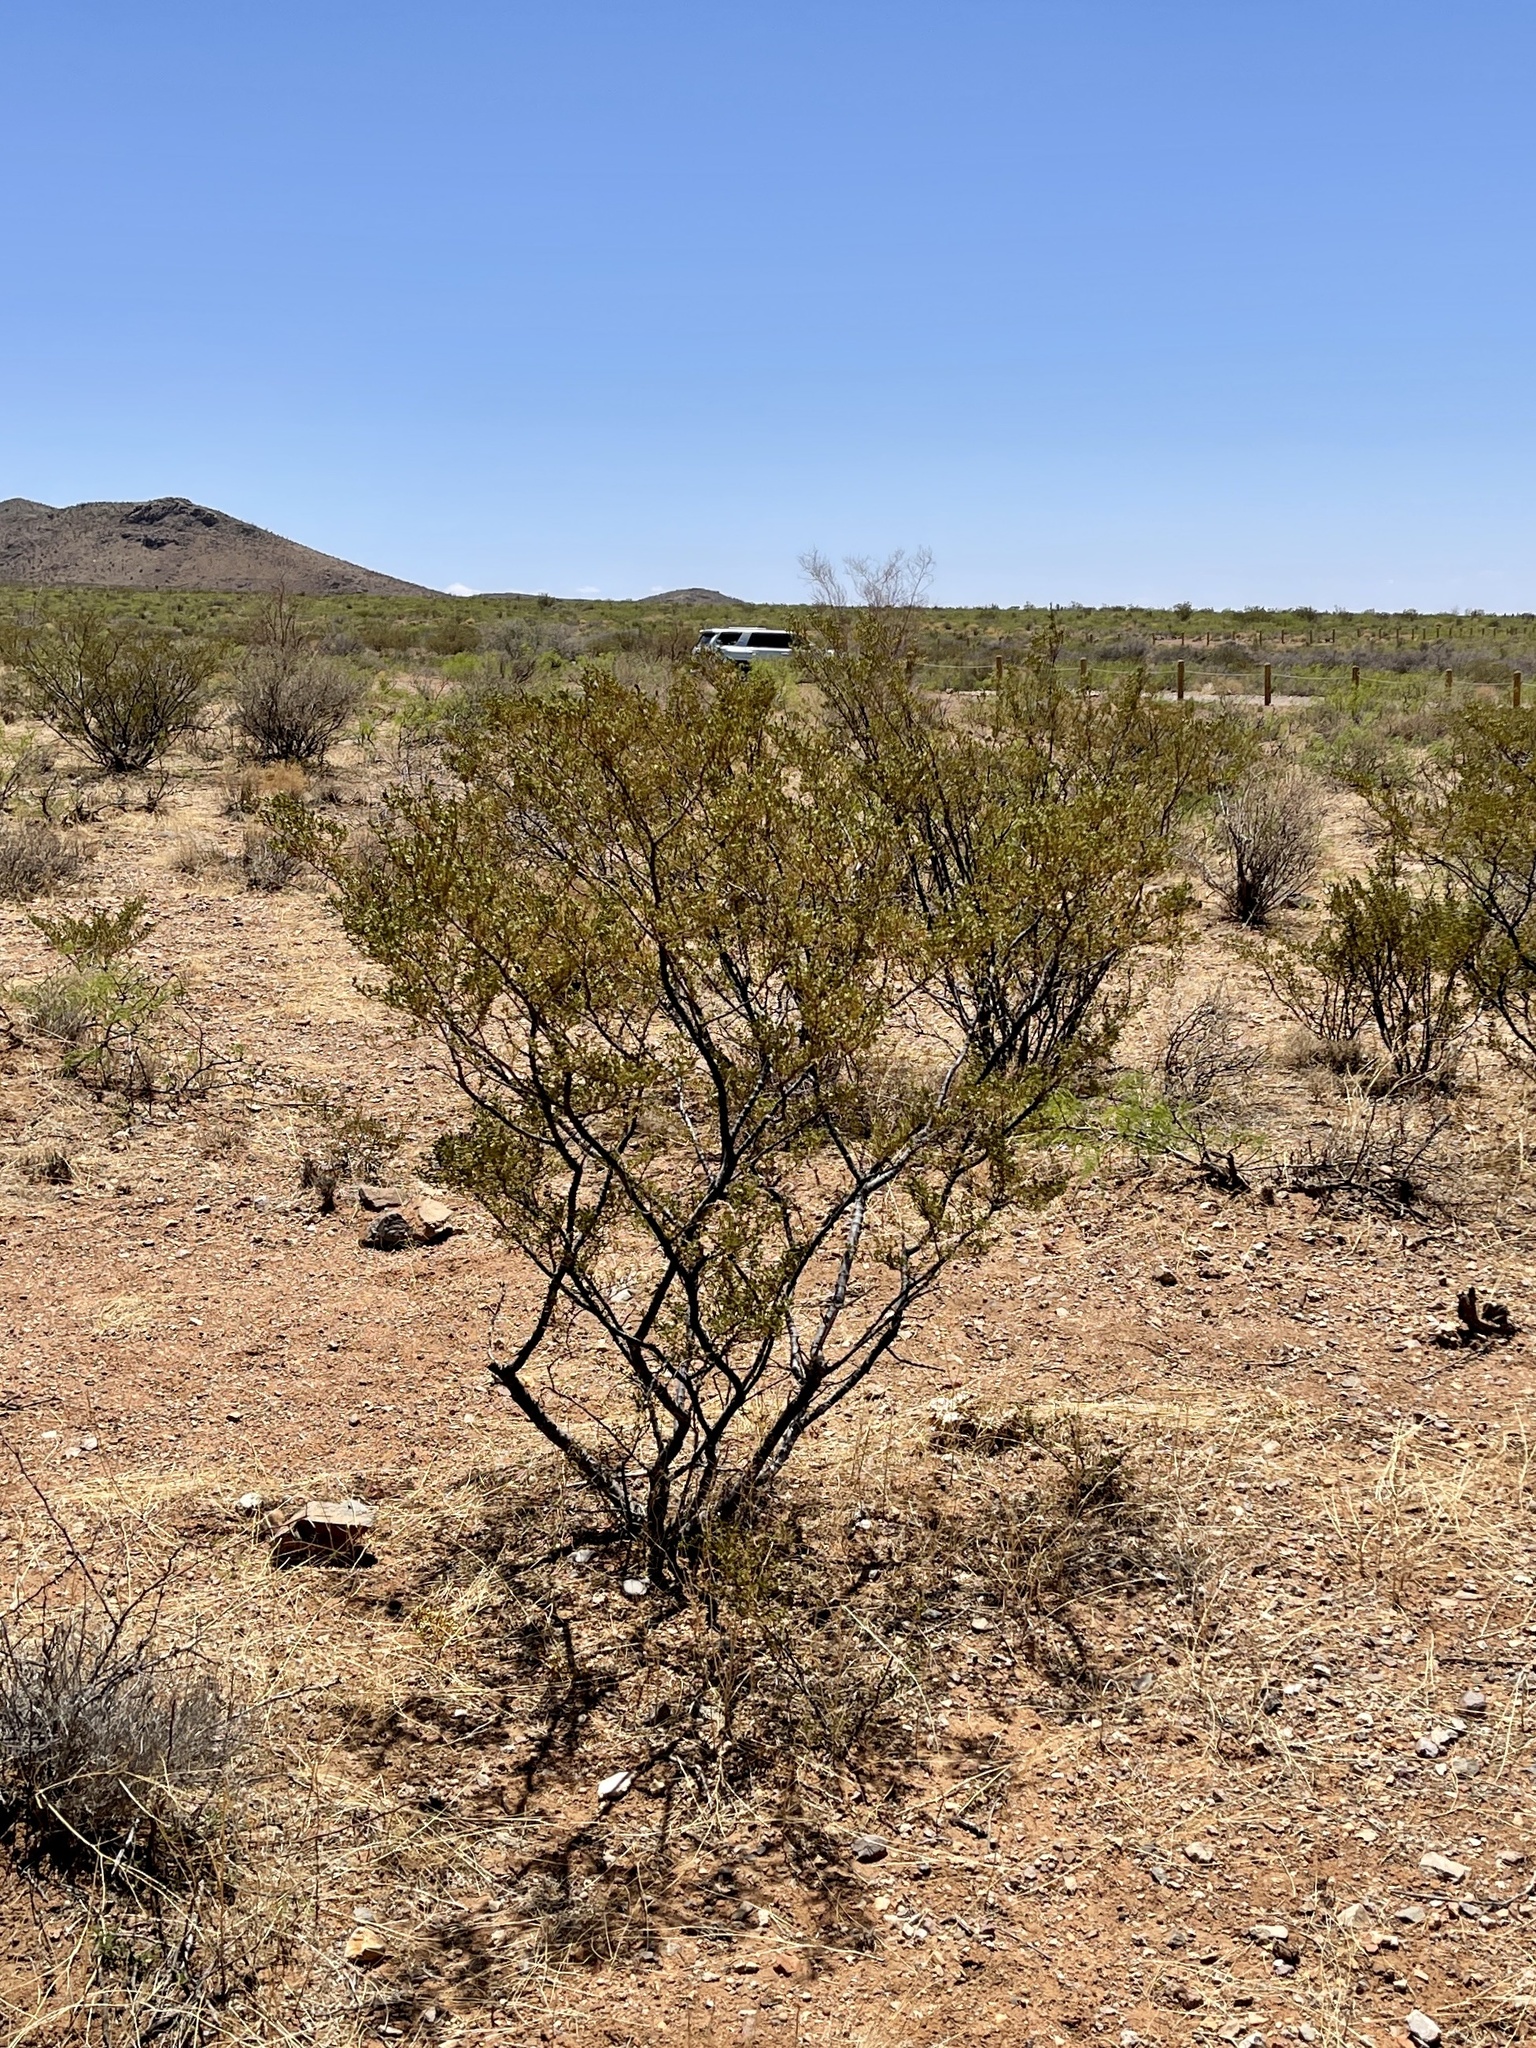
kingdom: Plantae
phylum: Tracheophyta
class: Magnoliopsida
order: Zygophyllales
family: Zygophyllaceae
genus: Larrea
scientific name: Larrea tridentata
